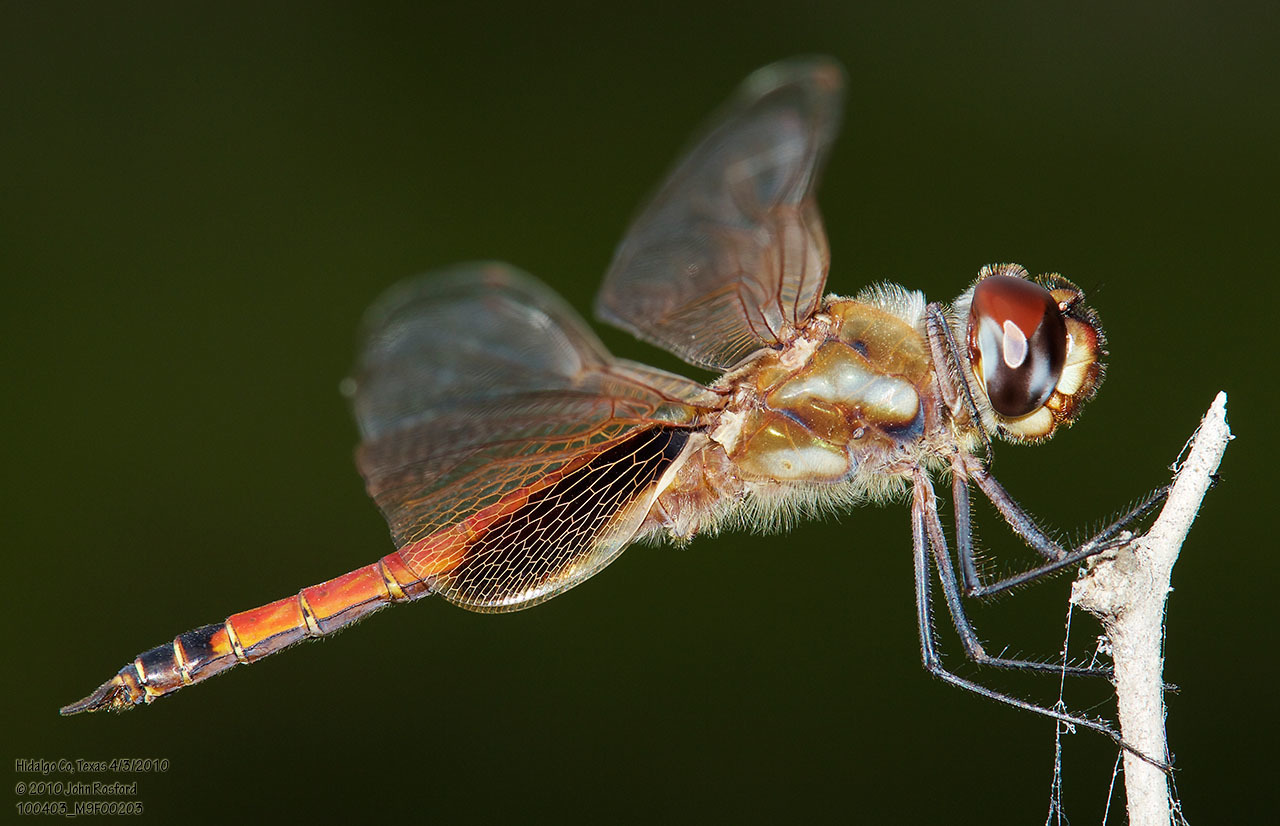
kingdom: Animalia
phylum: Arthropoda
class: Insecta
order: Odonata
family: Libellulidae
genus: Tramea
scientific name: Tramea darwini
